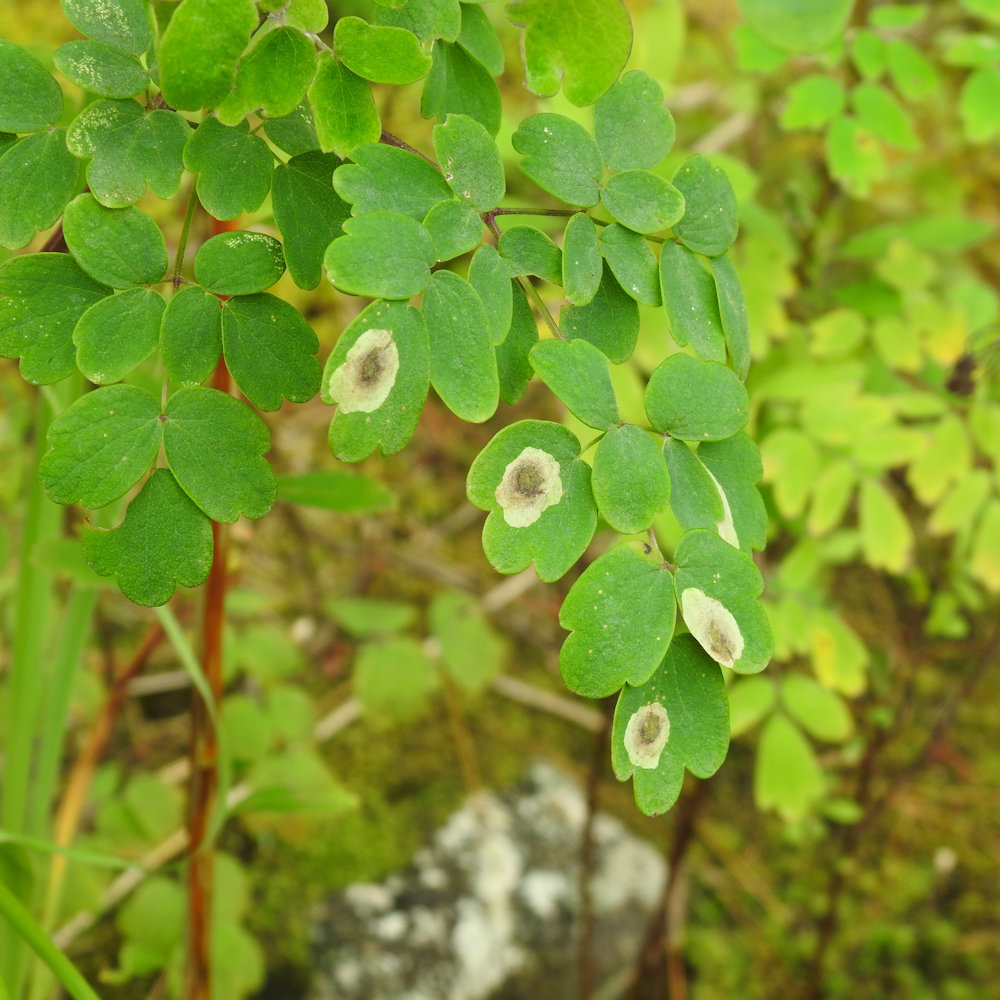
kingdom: Animalia
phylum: Arthropoda
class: Insecta
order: Diptera
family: Agromyzidae
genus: Phytomyza
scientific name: Phytomyza plumiseta
